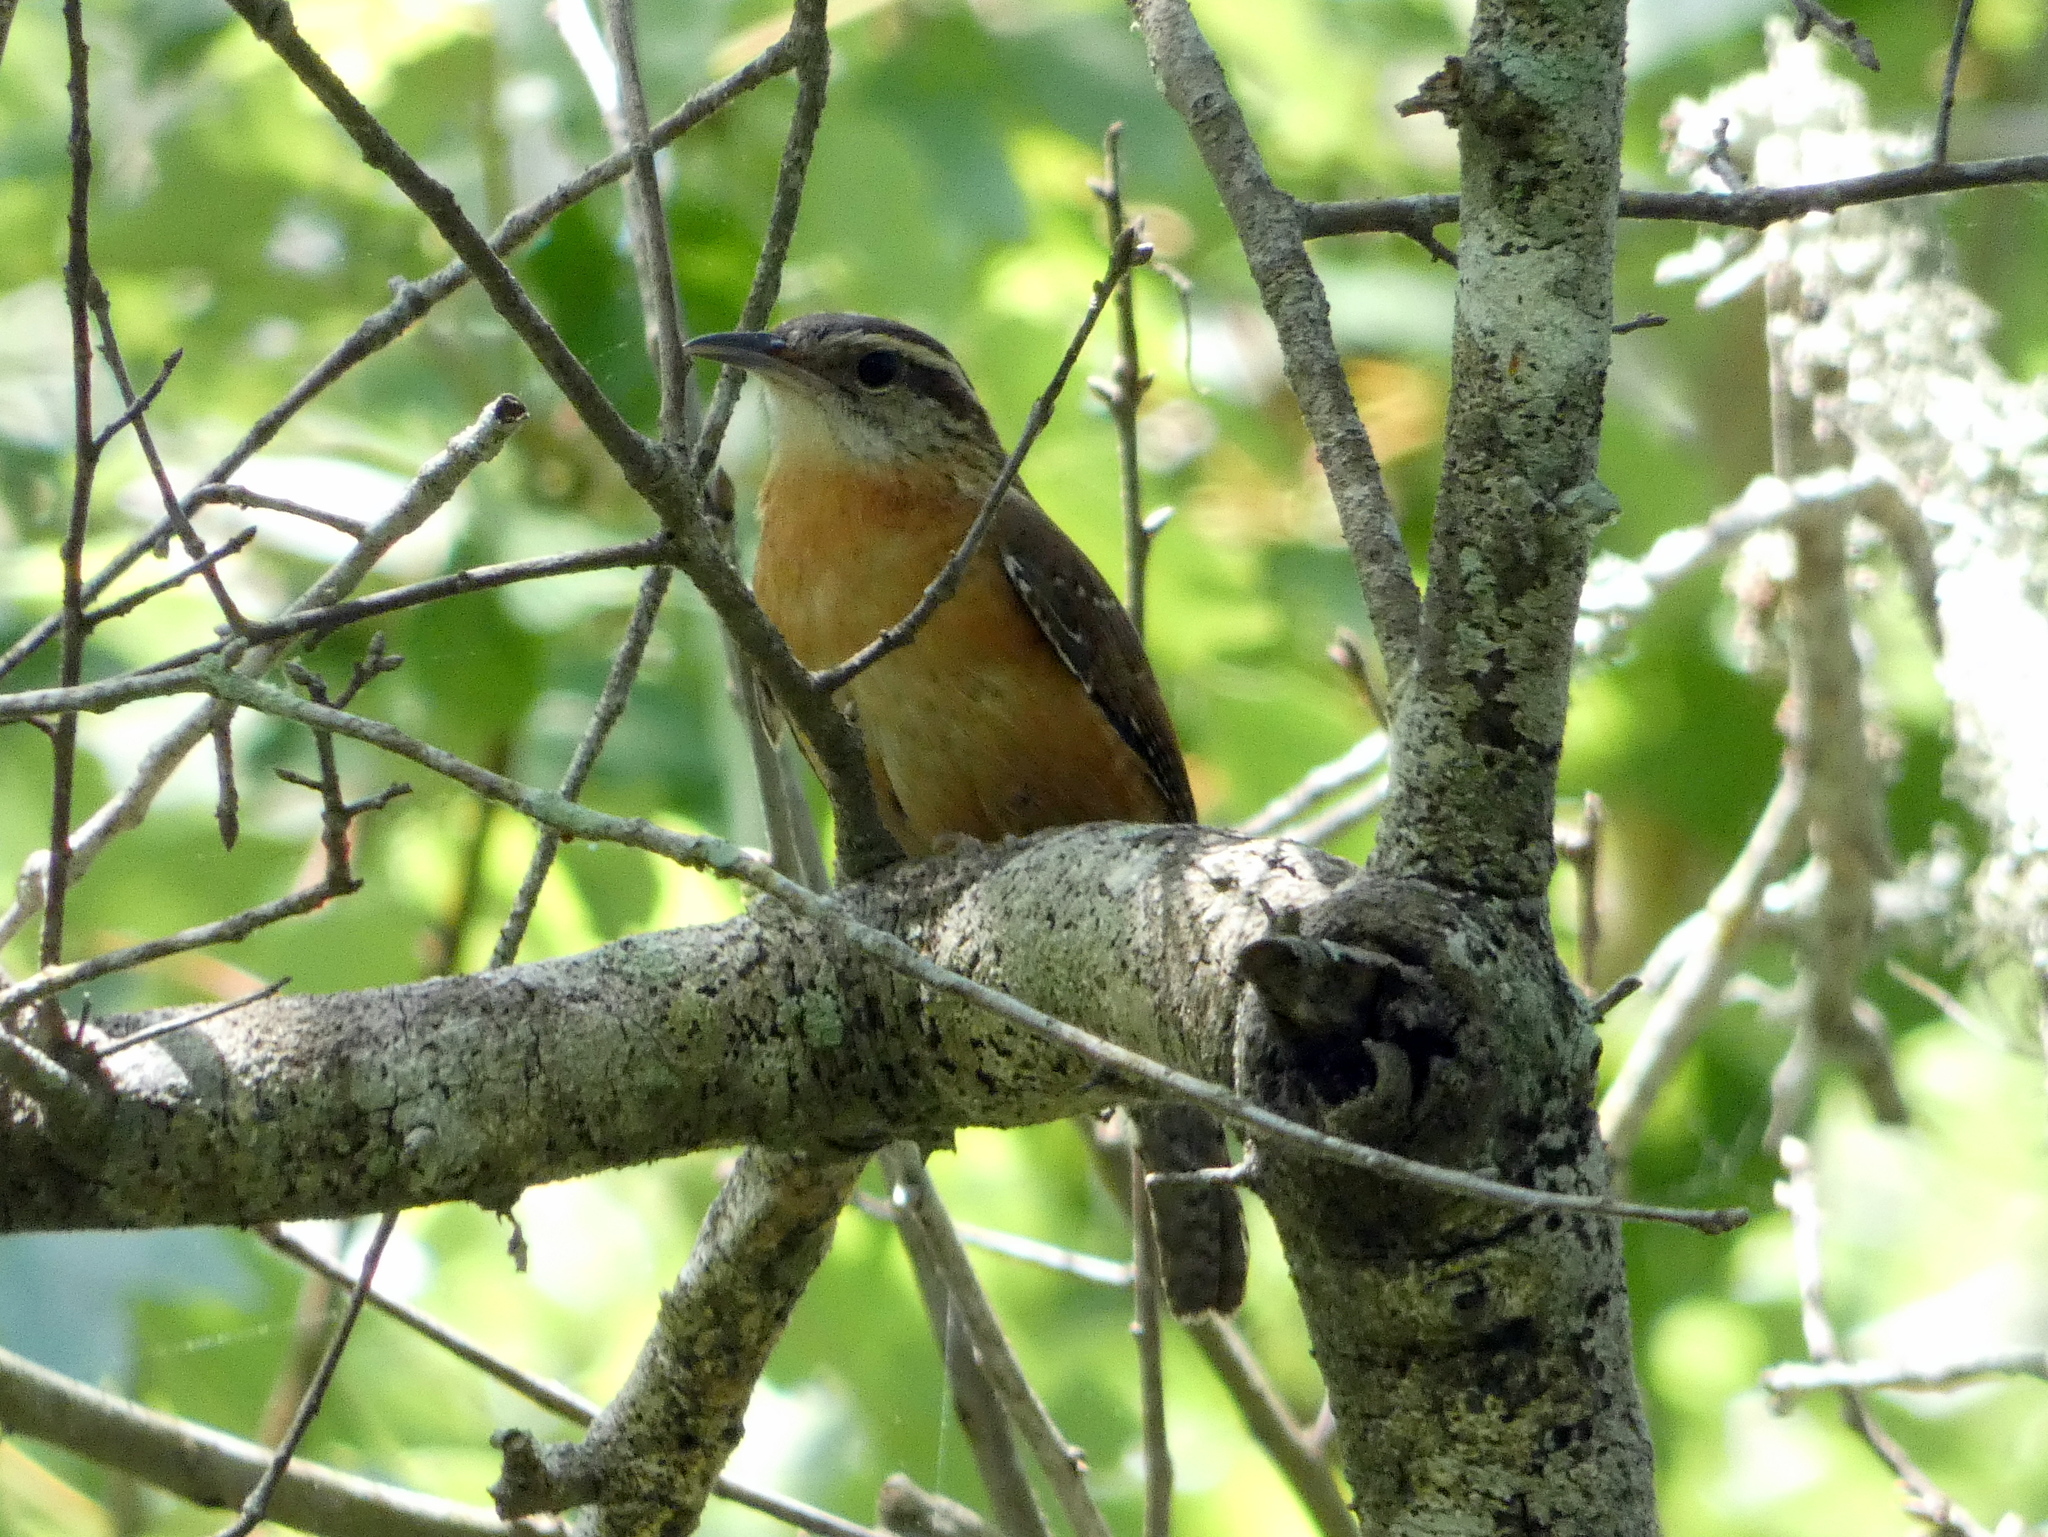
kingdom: Animalia
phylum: Chordata
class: Aves
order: Passeriformes
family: Troglodytidae
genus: Thryothorus
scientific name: Thryothorus ludovicianus
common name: Carolina wren
